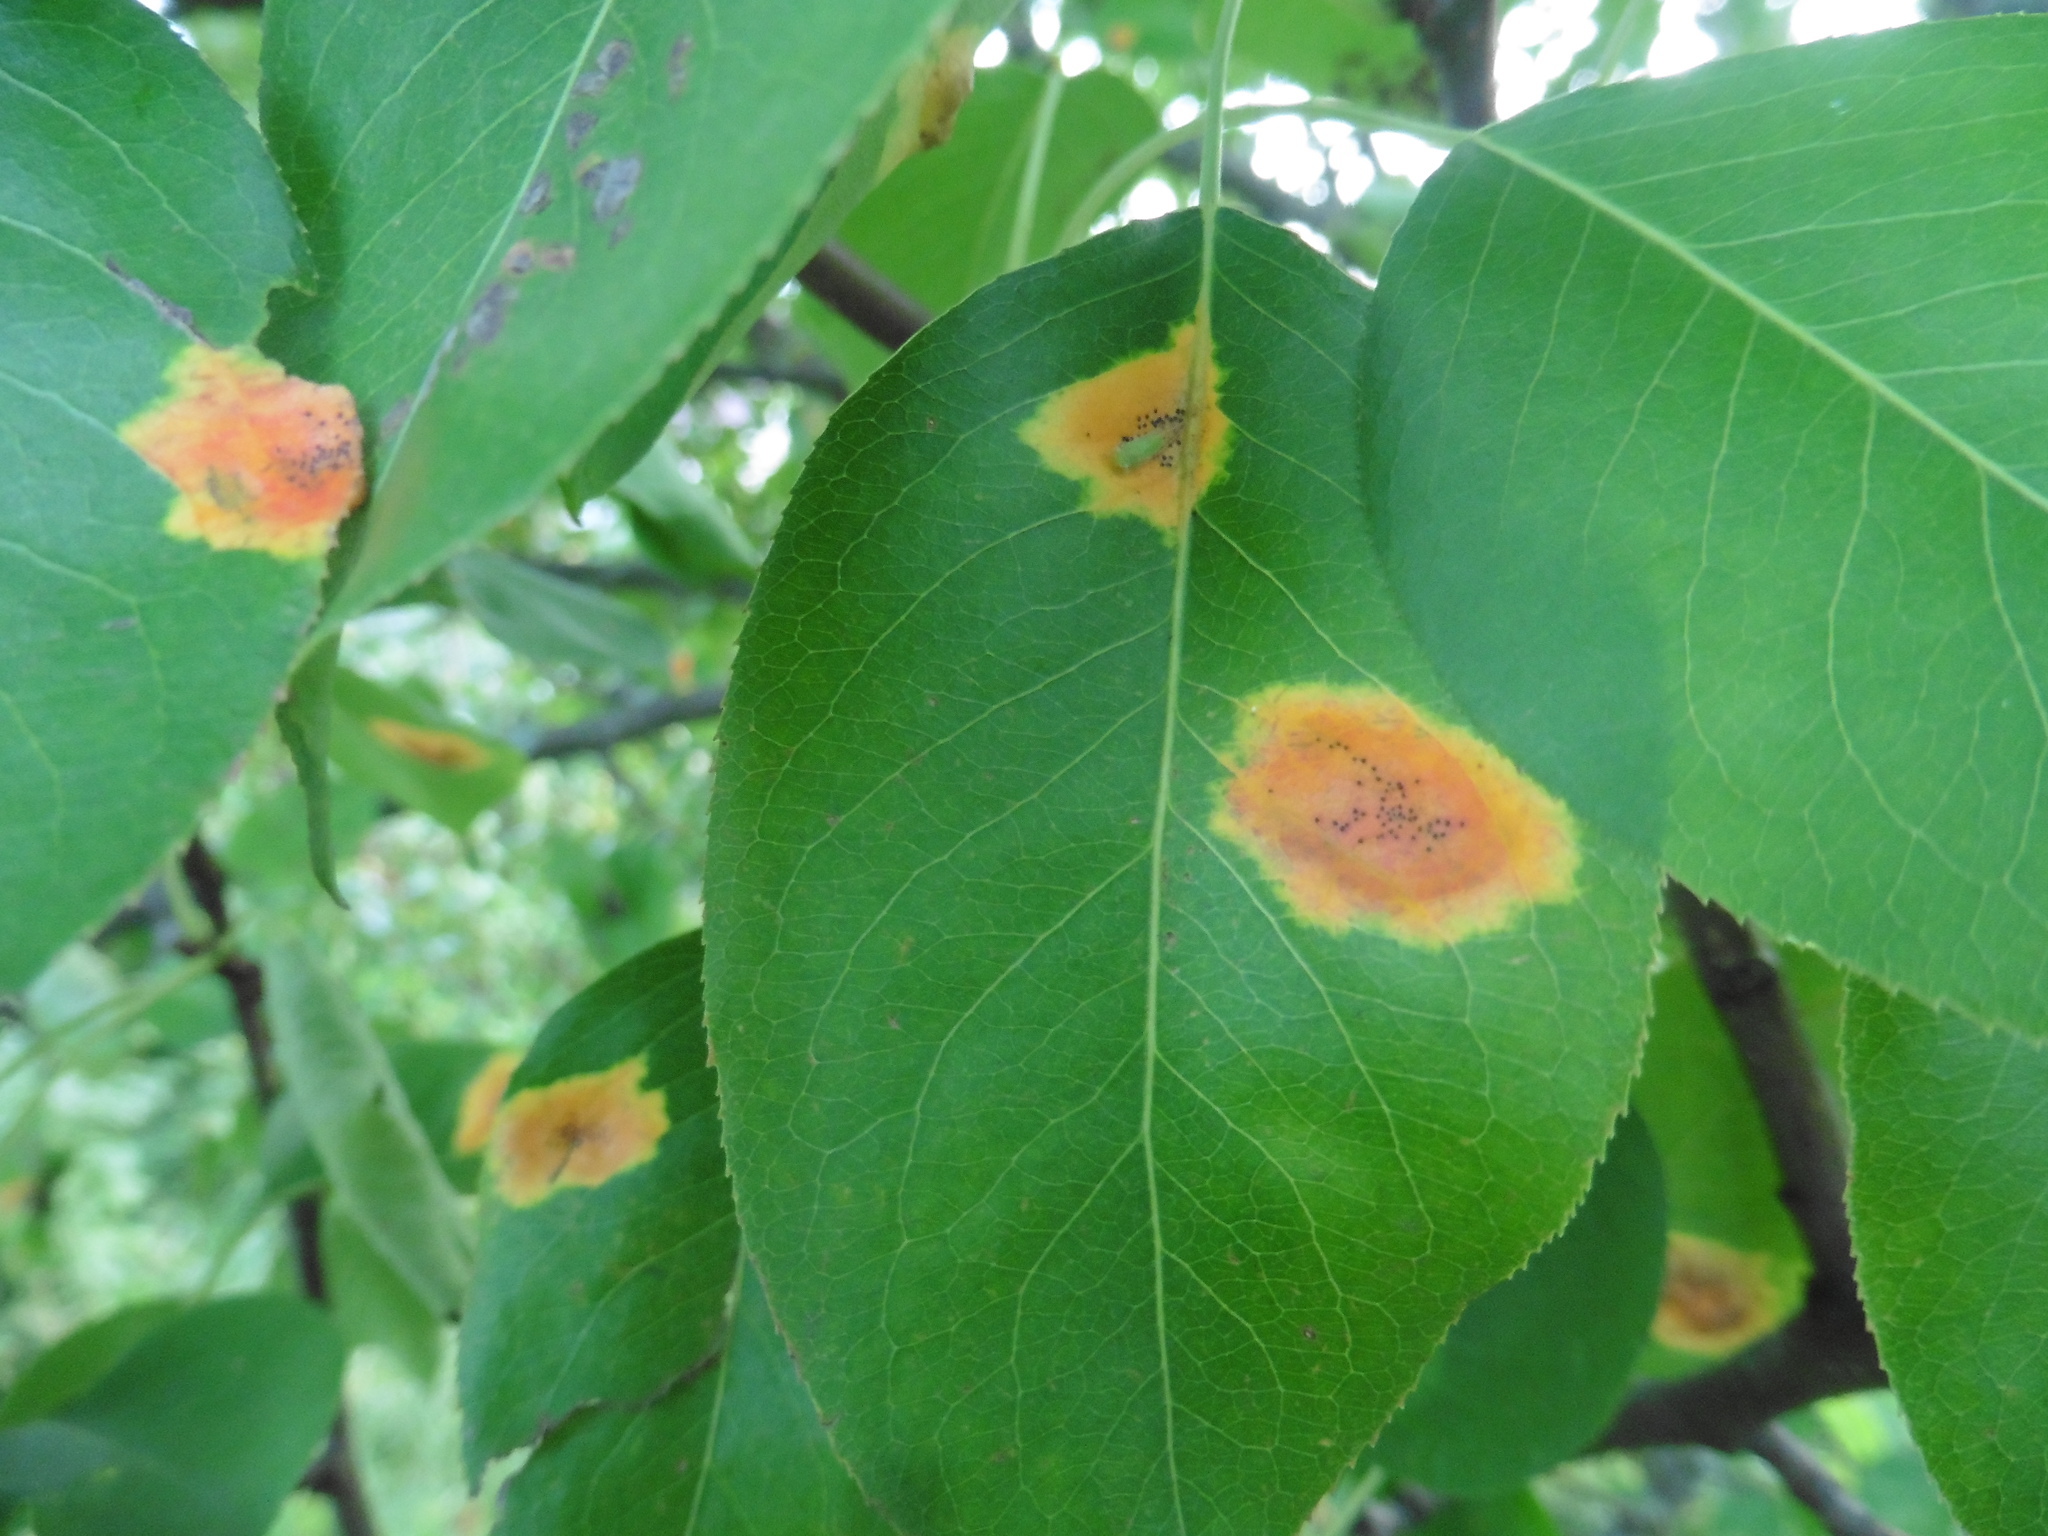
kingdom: Plantae
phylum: Tracheophyta
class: Magnoliopsida
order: Rosales
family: Rosaceae
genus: Pyrus
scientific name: Pyrus communis
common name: Pear
